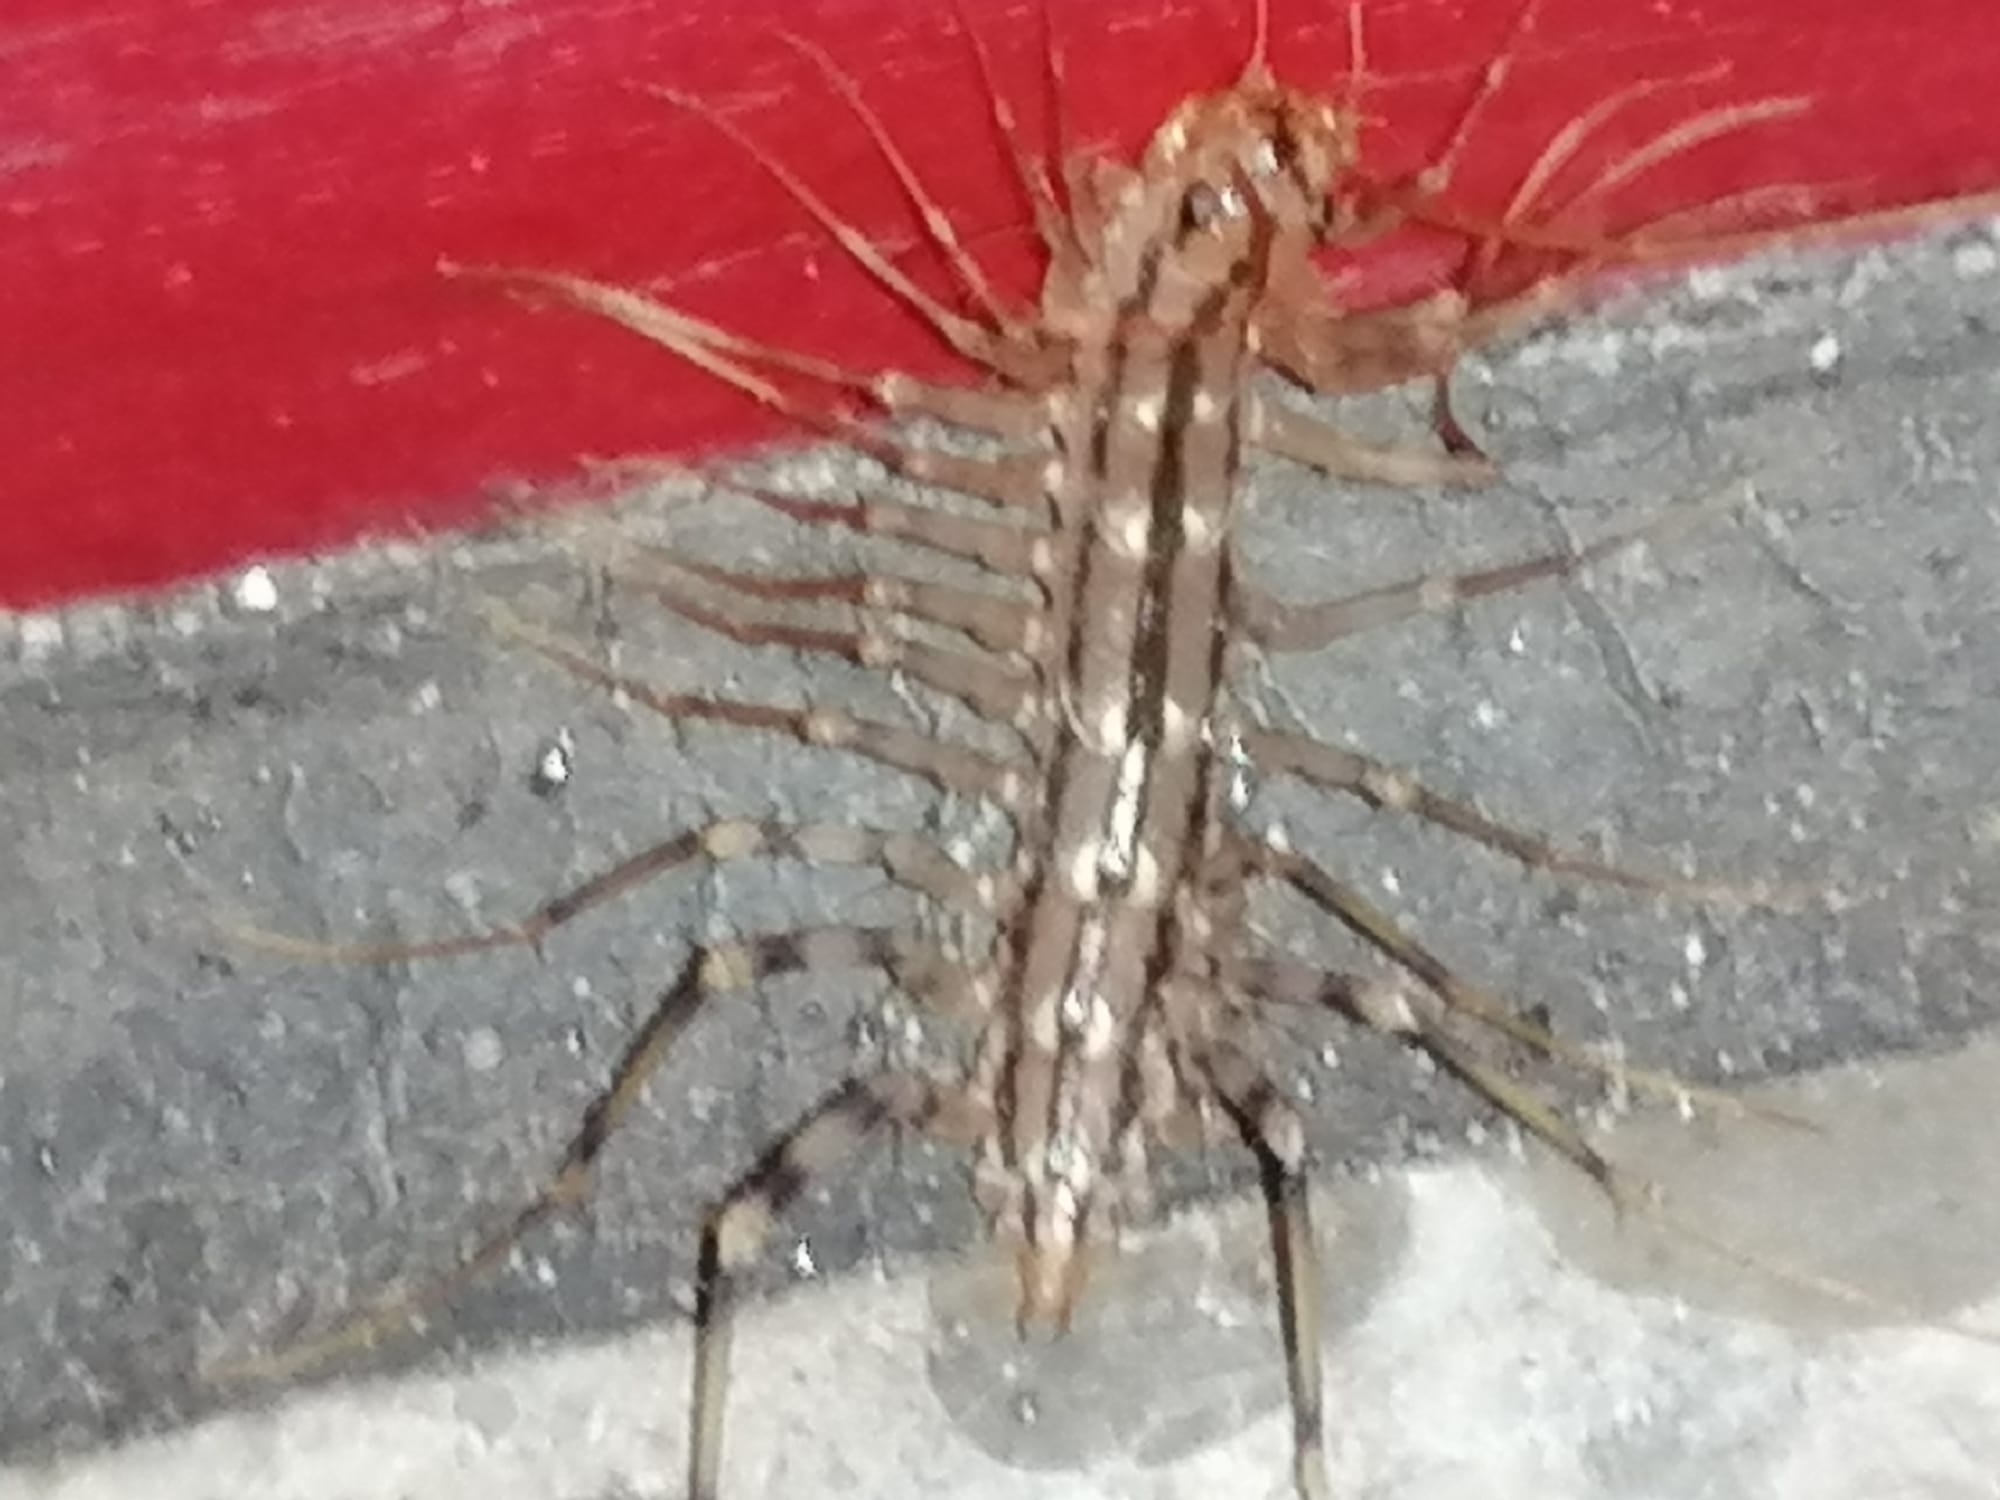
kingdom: Animalia
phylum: Arthropoda
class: Chilopoda
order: Scutigeromorpha
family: Scutigeridae
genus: Scutigera
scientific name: Scutigera coleoptrata
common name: House centipede
